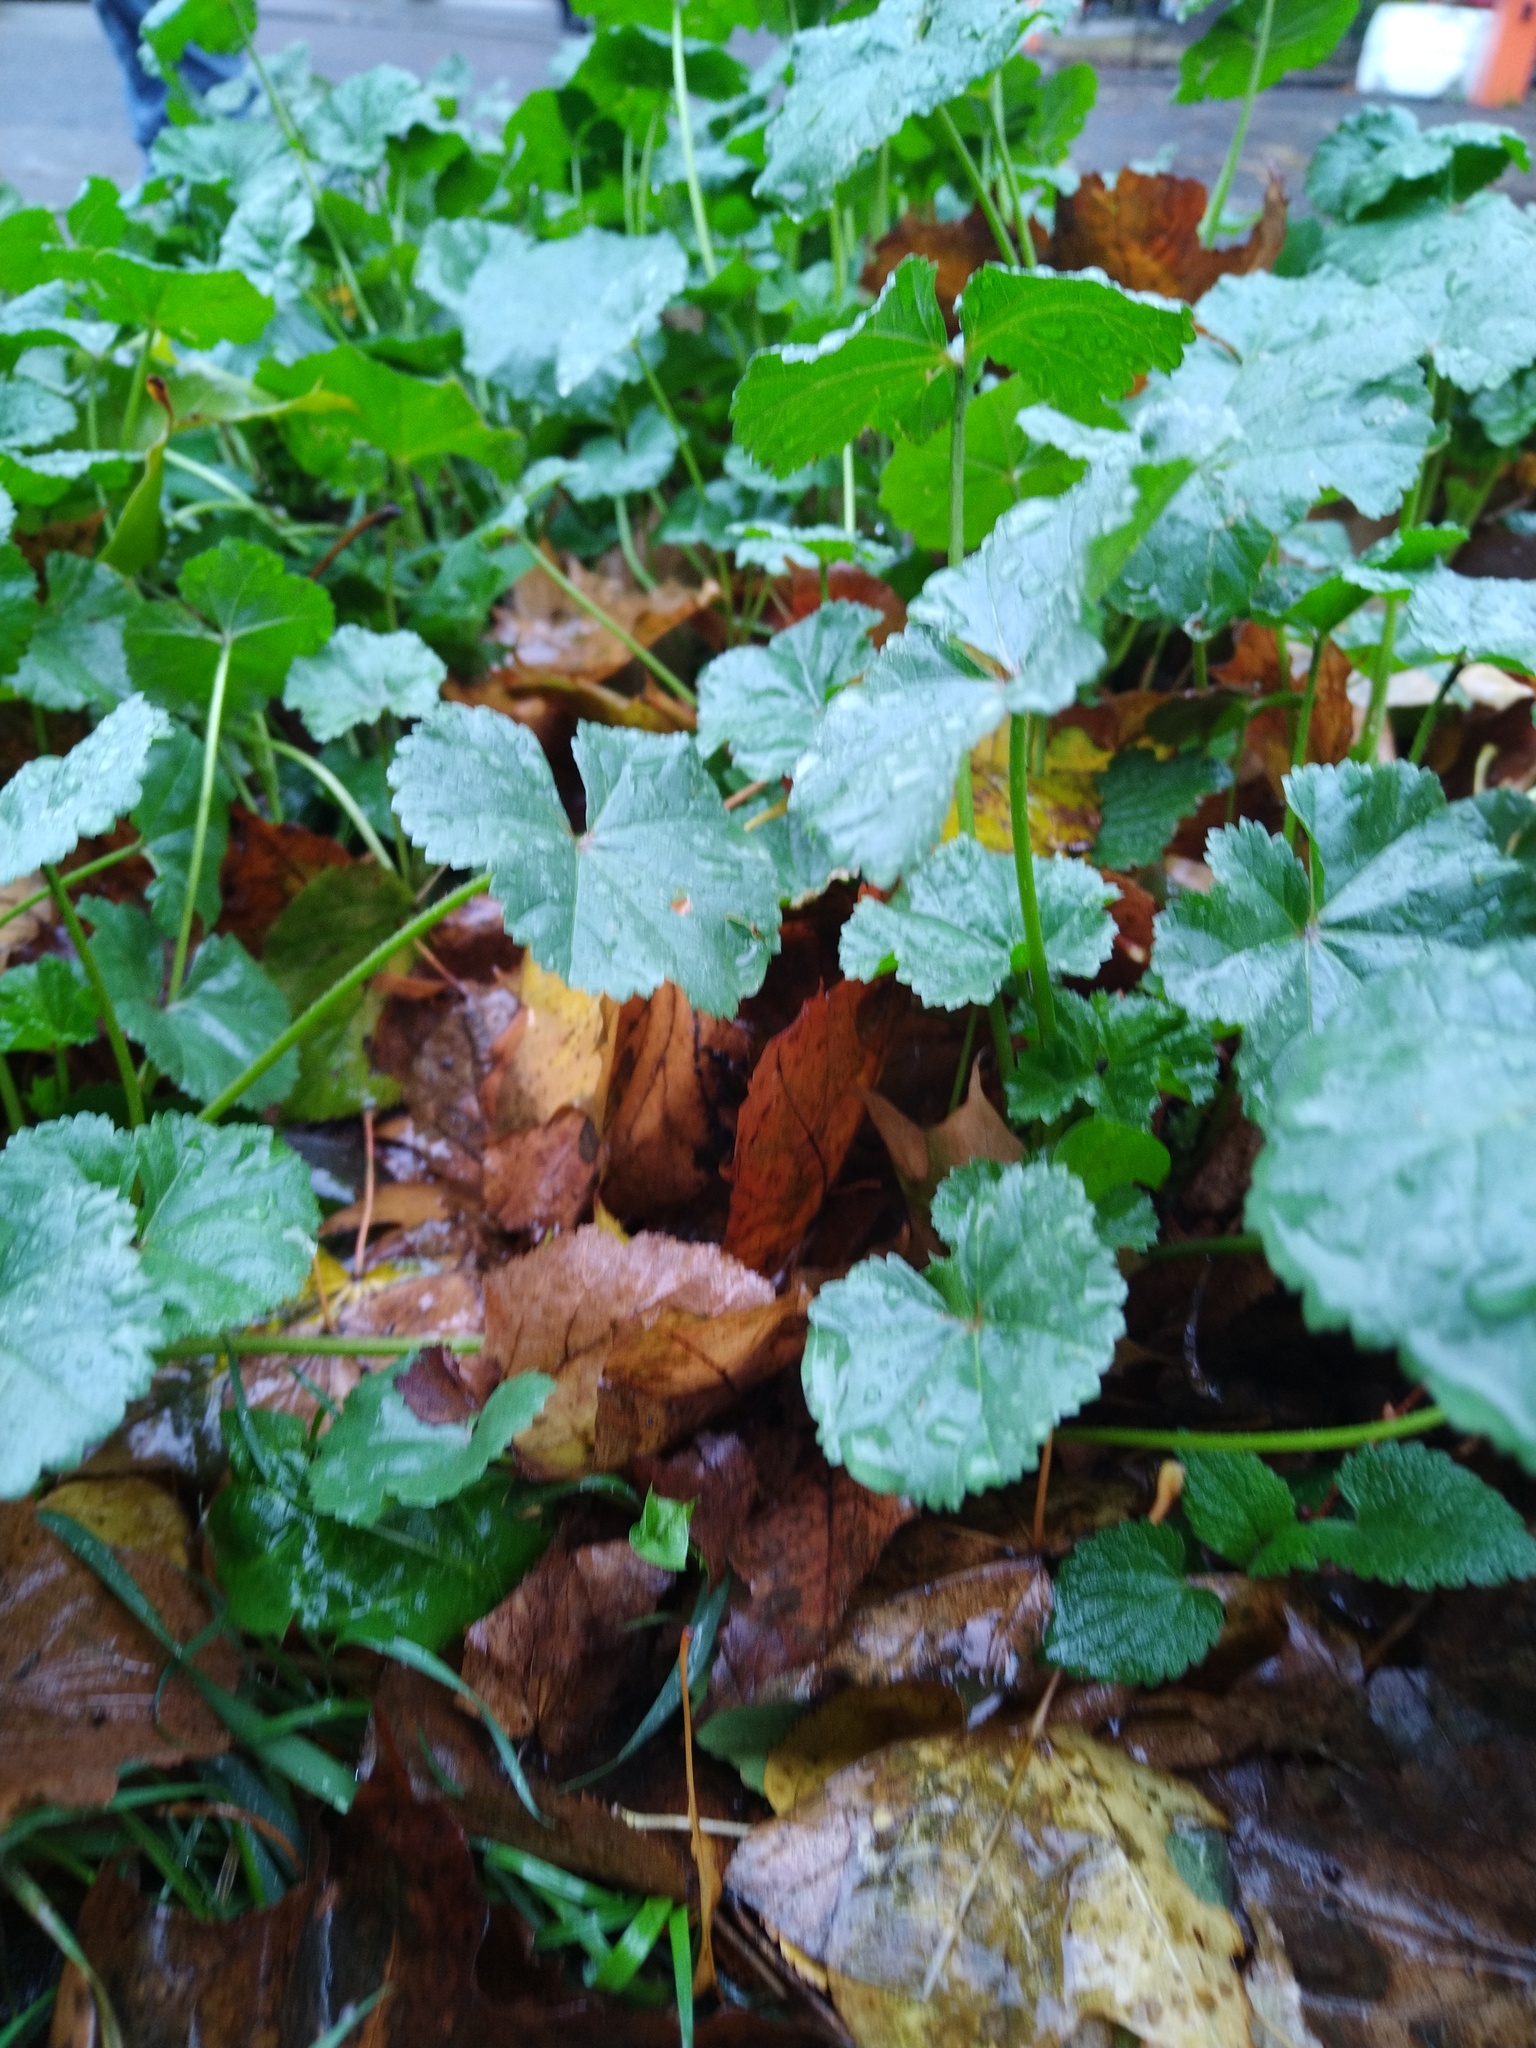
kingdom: Plantae
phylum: Tracheophyta
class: Magnoliopsida
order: Malvales
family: Malvaceae
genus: Malva
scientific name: Malva pusilla
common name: Small mallow
